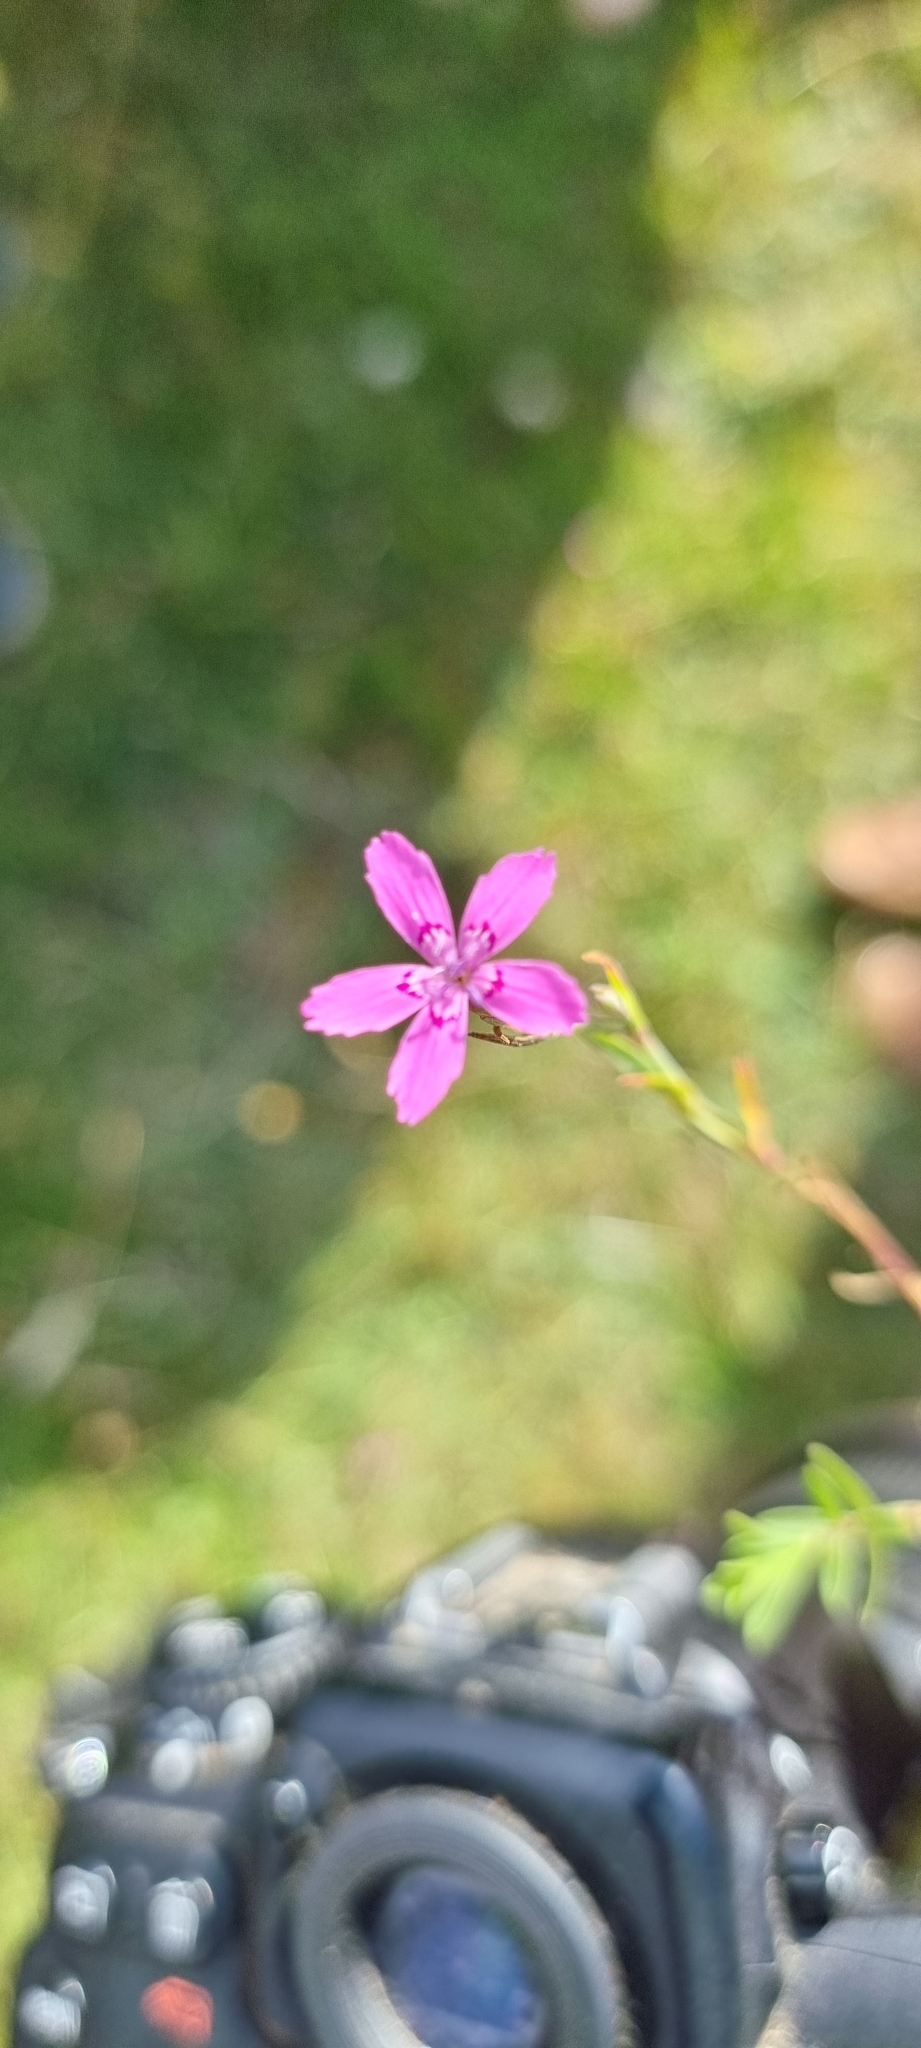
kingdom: Plantae
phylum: Tracheophyta
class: Magnoliopsida
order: Caryophyllales
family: Caryophyllaceae
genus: Dianthus
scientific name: Dianthus deltoides
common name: Maiden pink
